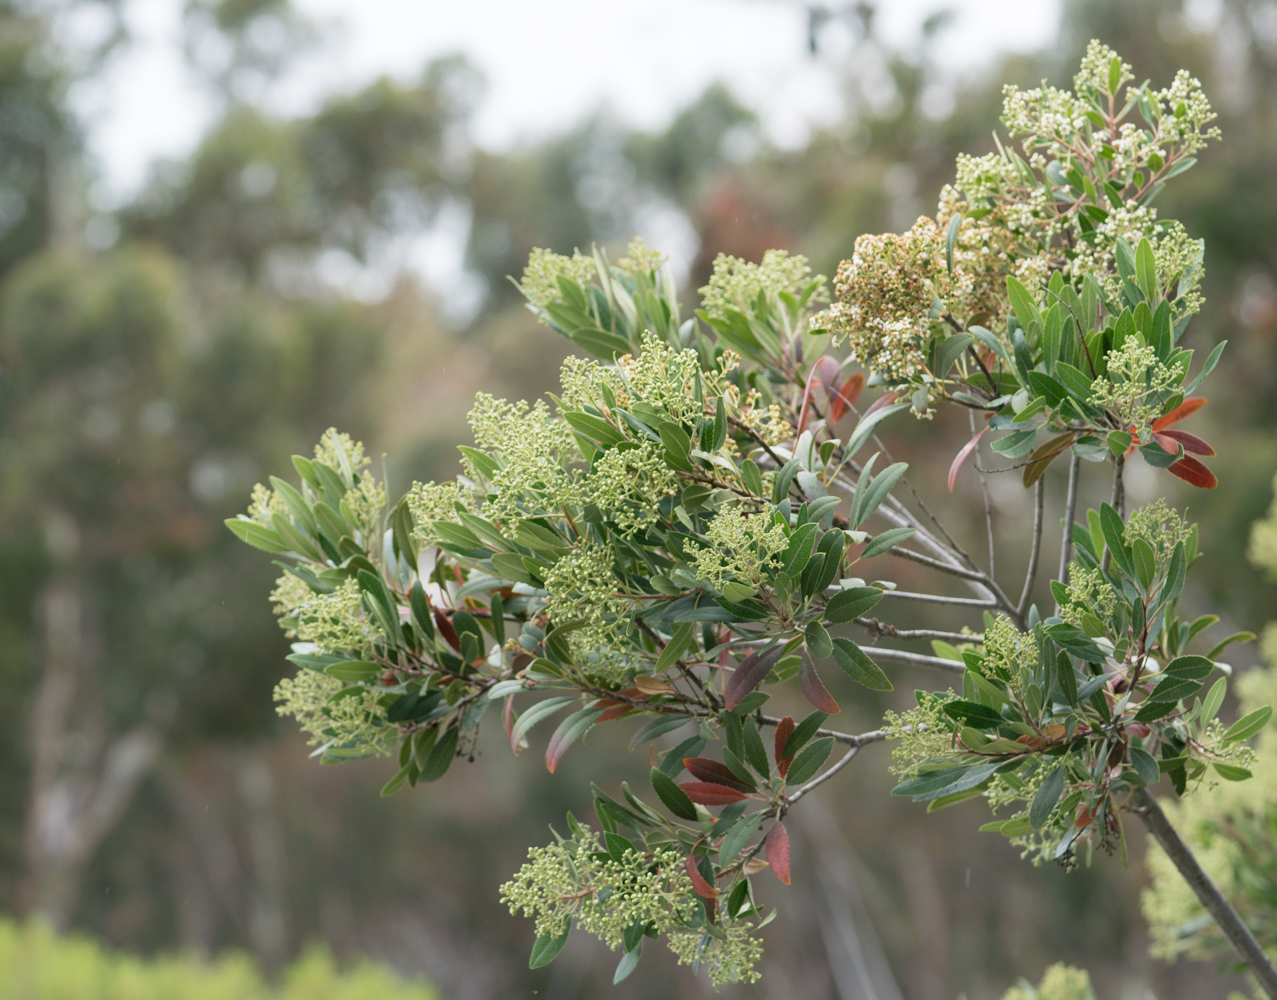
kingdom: Plantae
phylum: Tracheophyta
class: Magnoliopsida
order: Rosales
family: Rosaceae
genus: Heteromeles
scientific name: Heteromeles arbutifolia
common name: California-holly
